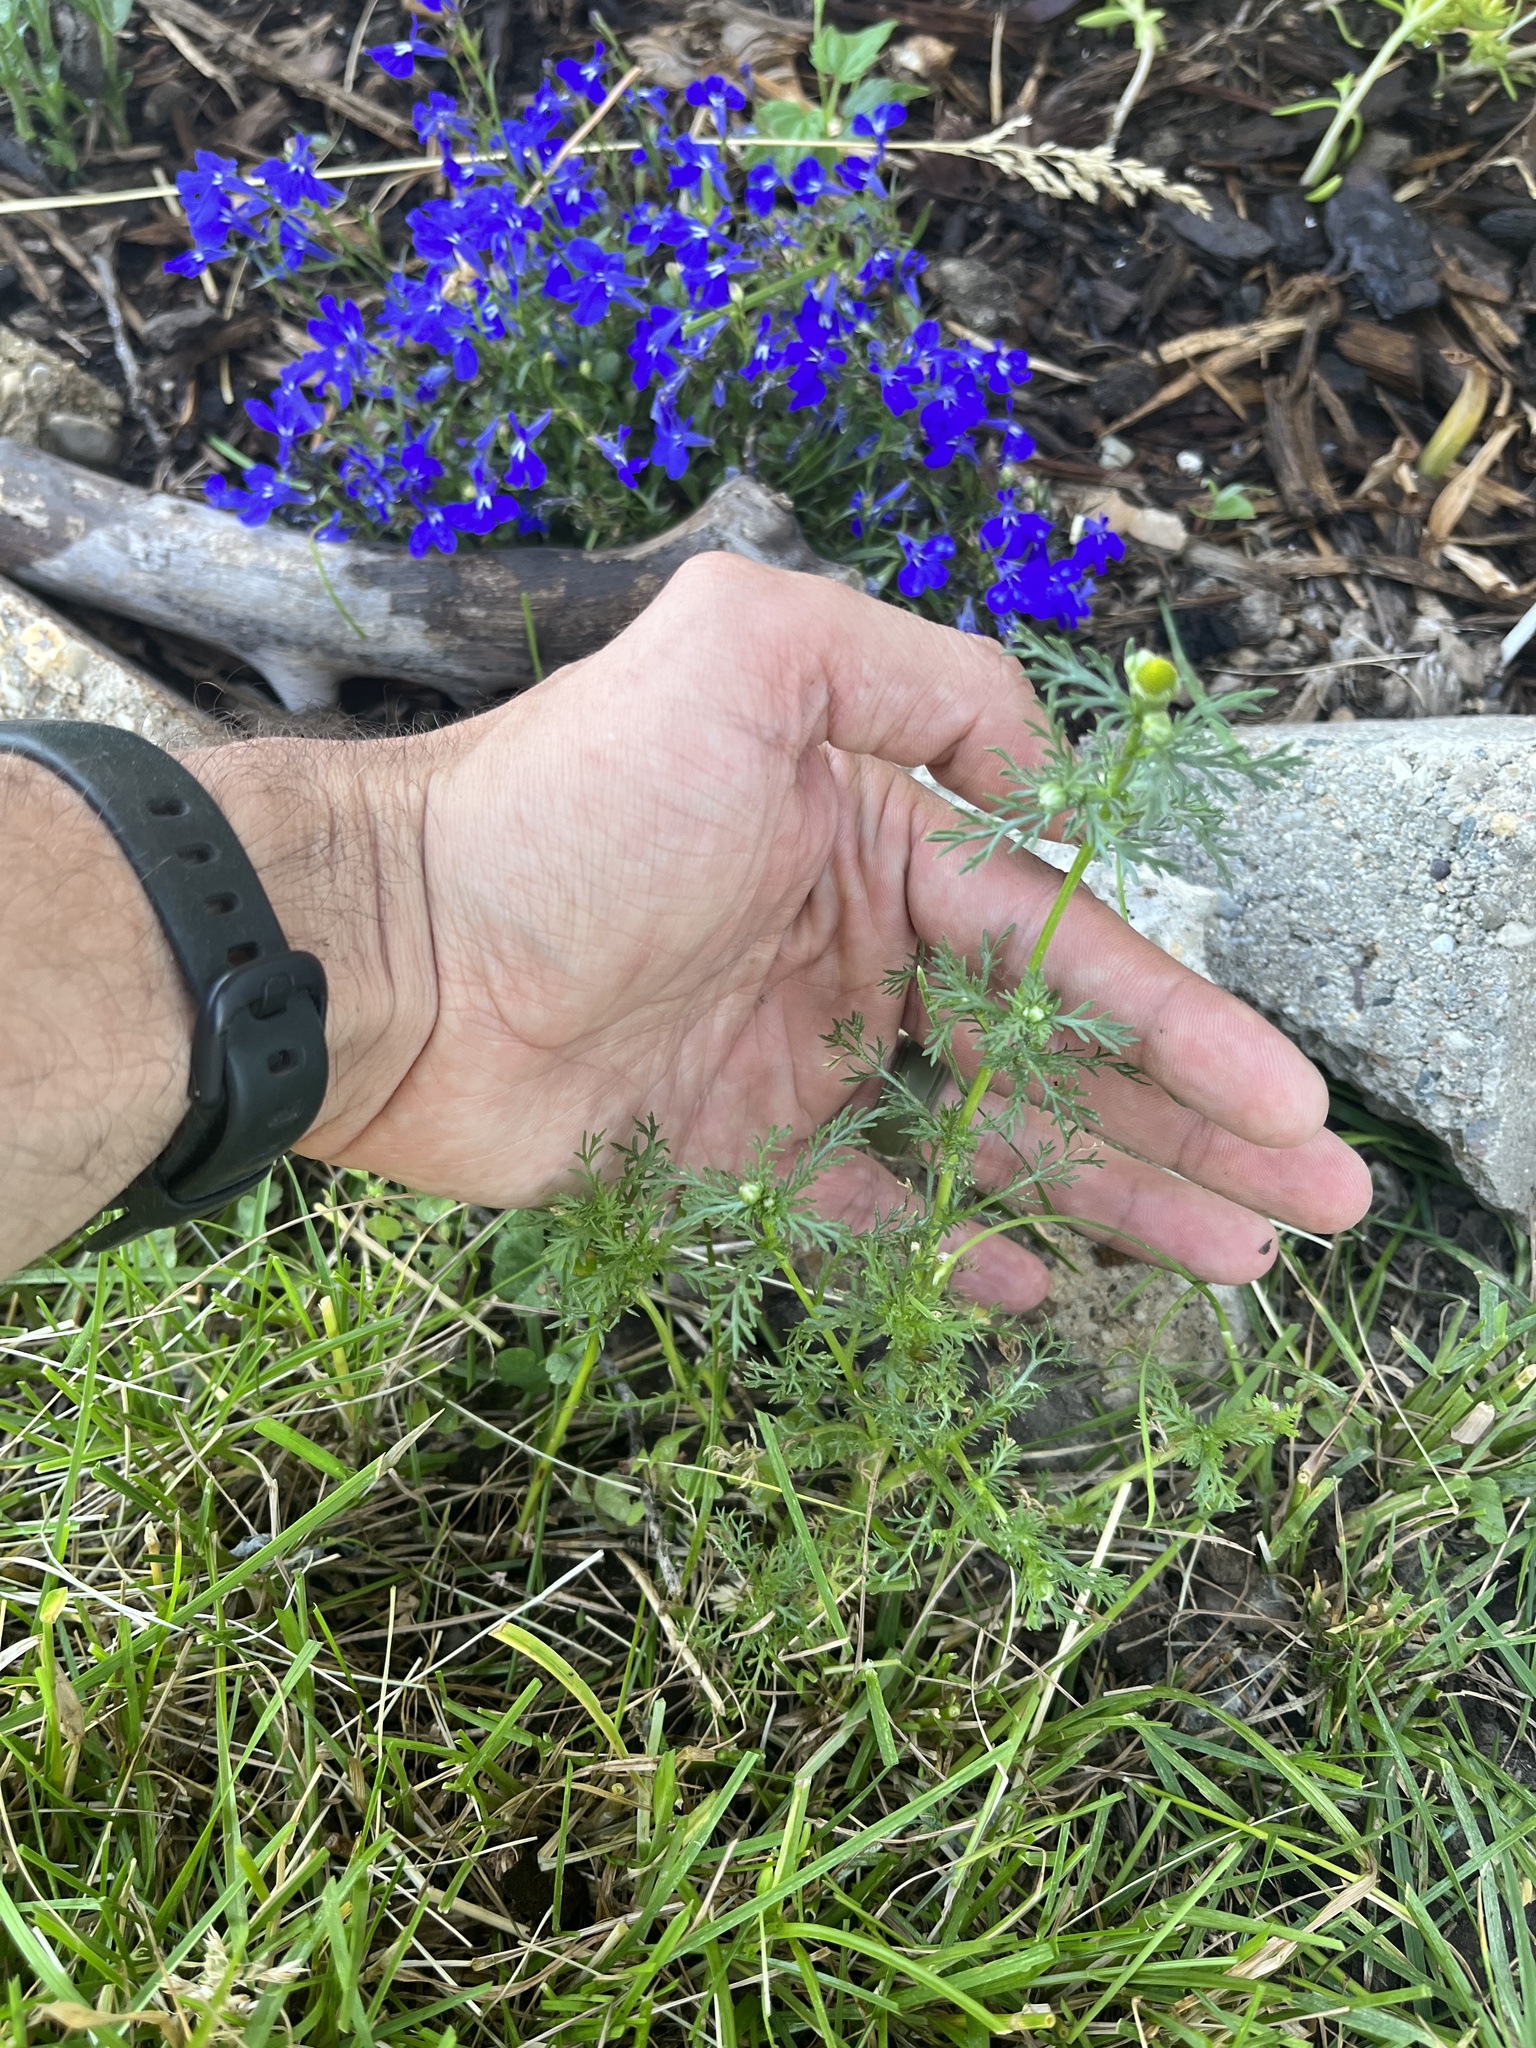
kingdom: Plantae
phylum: Tracheophyta
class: Magnoliopsida
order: Asterales
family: Asteraceae
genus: Matricaria
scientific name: Matricaria discoidea
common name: Disc mayweed
